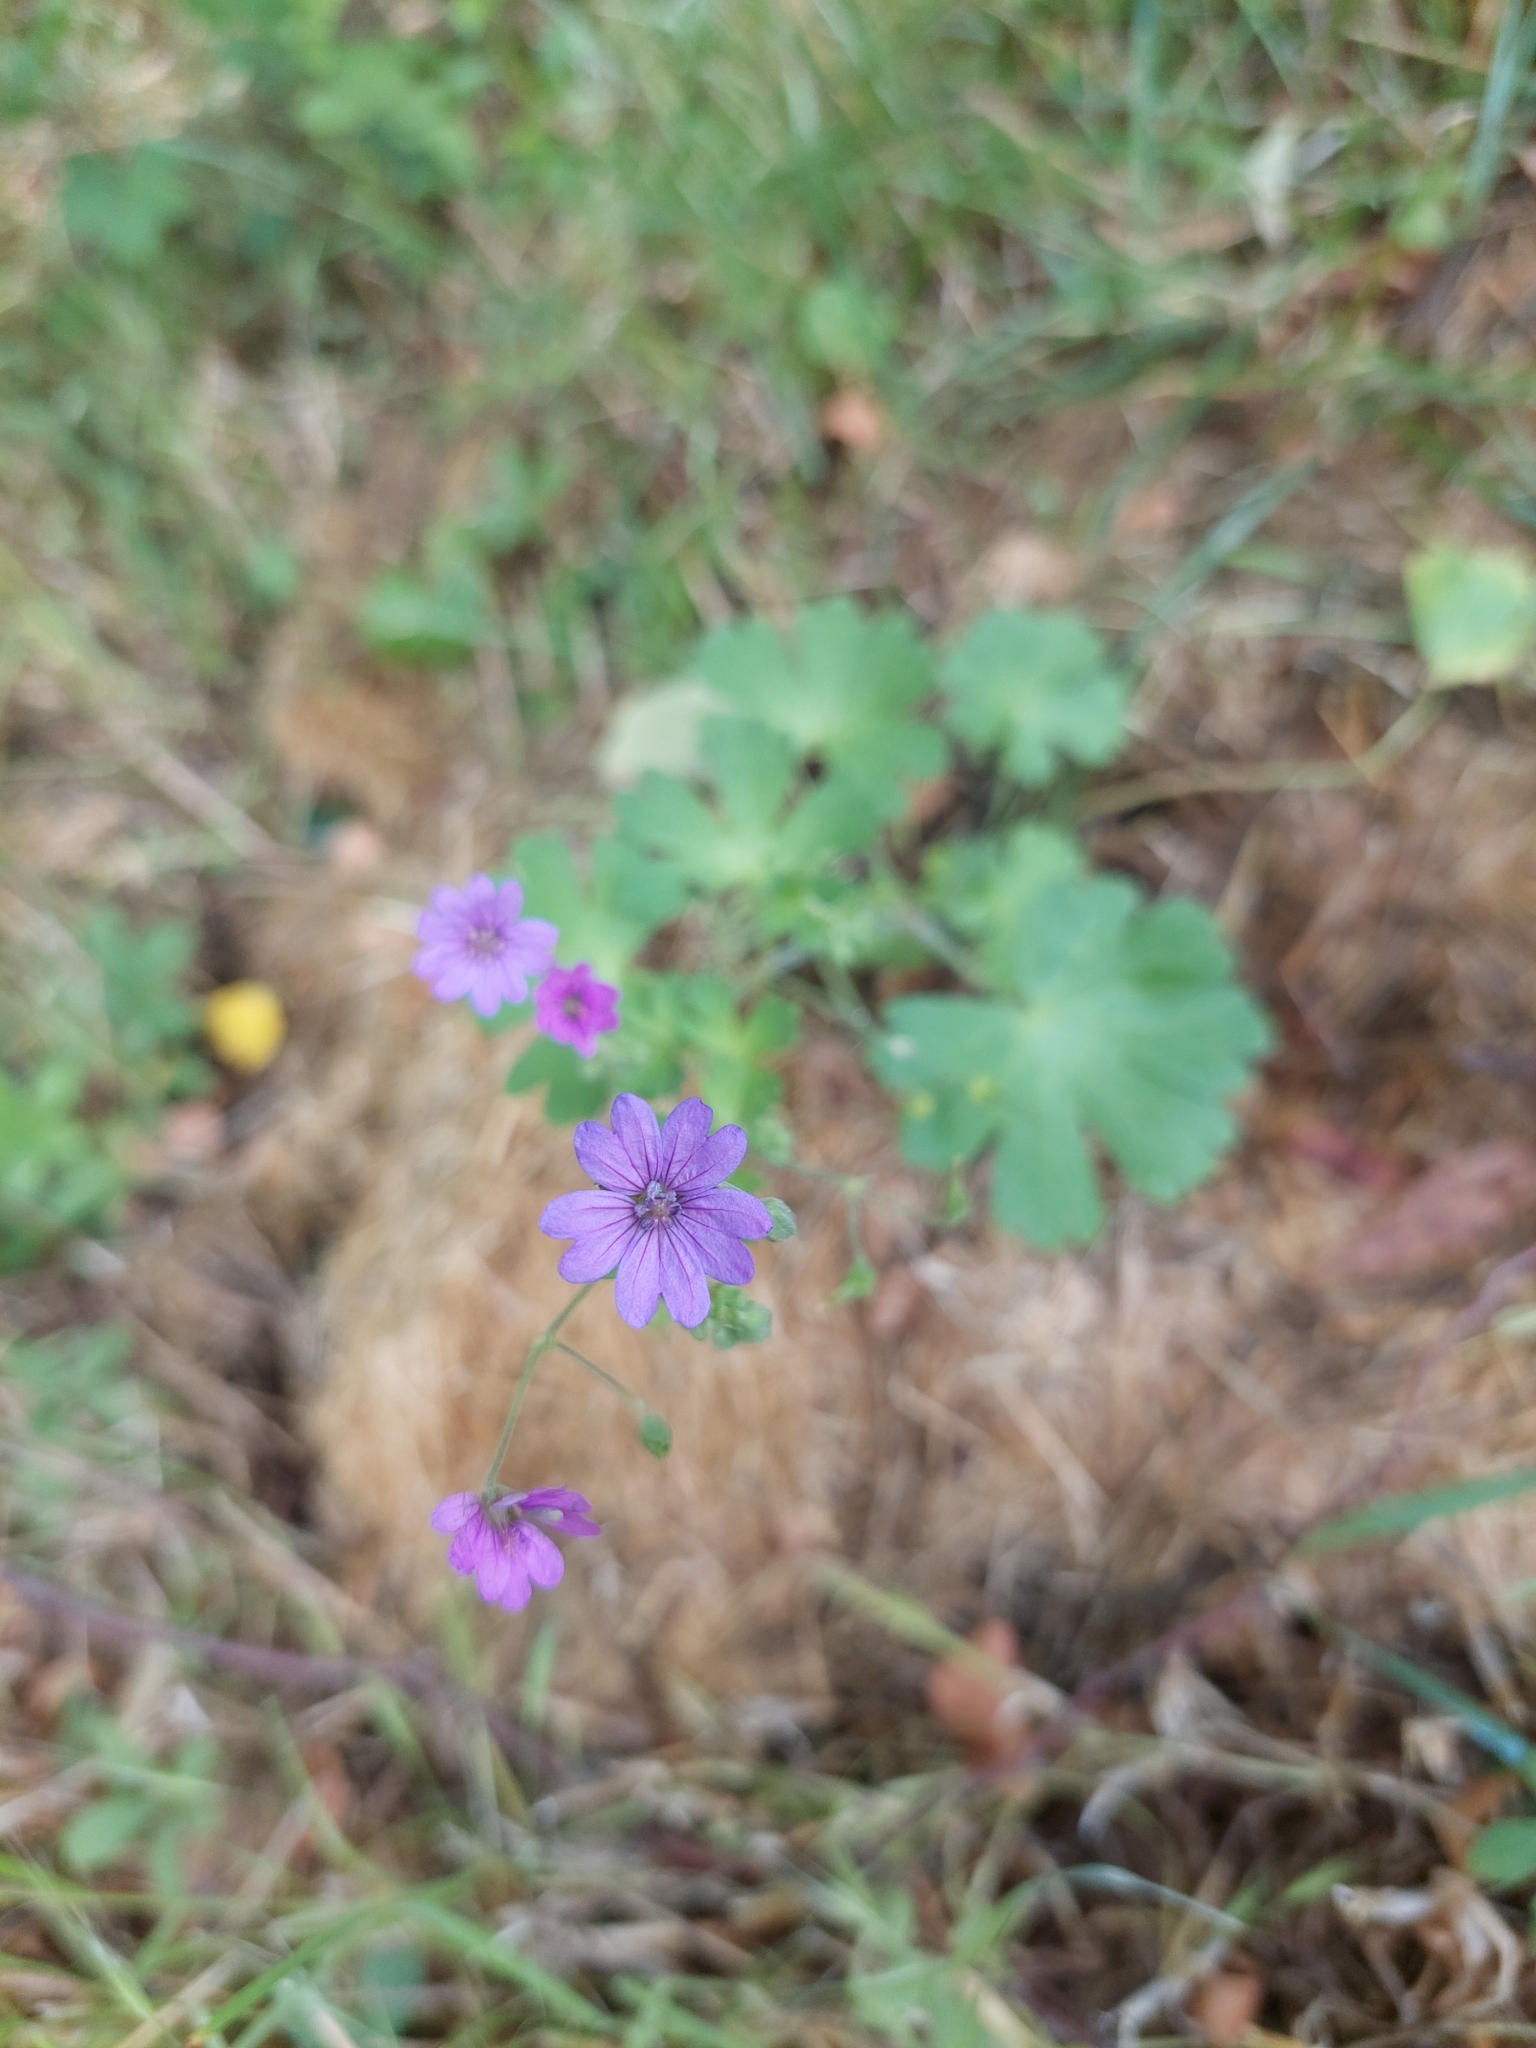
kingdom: Plantae
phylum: Tracheophyta
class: Magnoliopsida
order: Geraniales
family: Geraniaceae
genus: Geranium
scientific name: Geranium pyrenaicum
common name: Hedgerow crane's-bill
